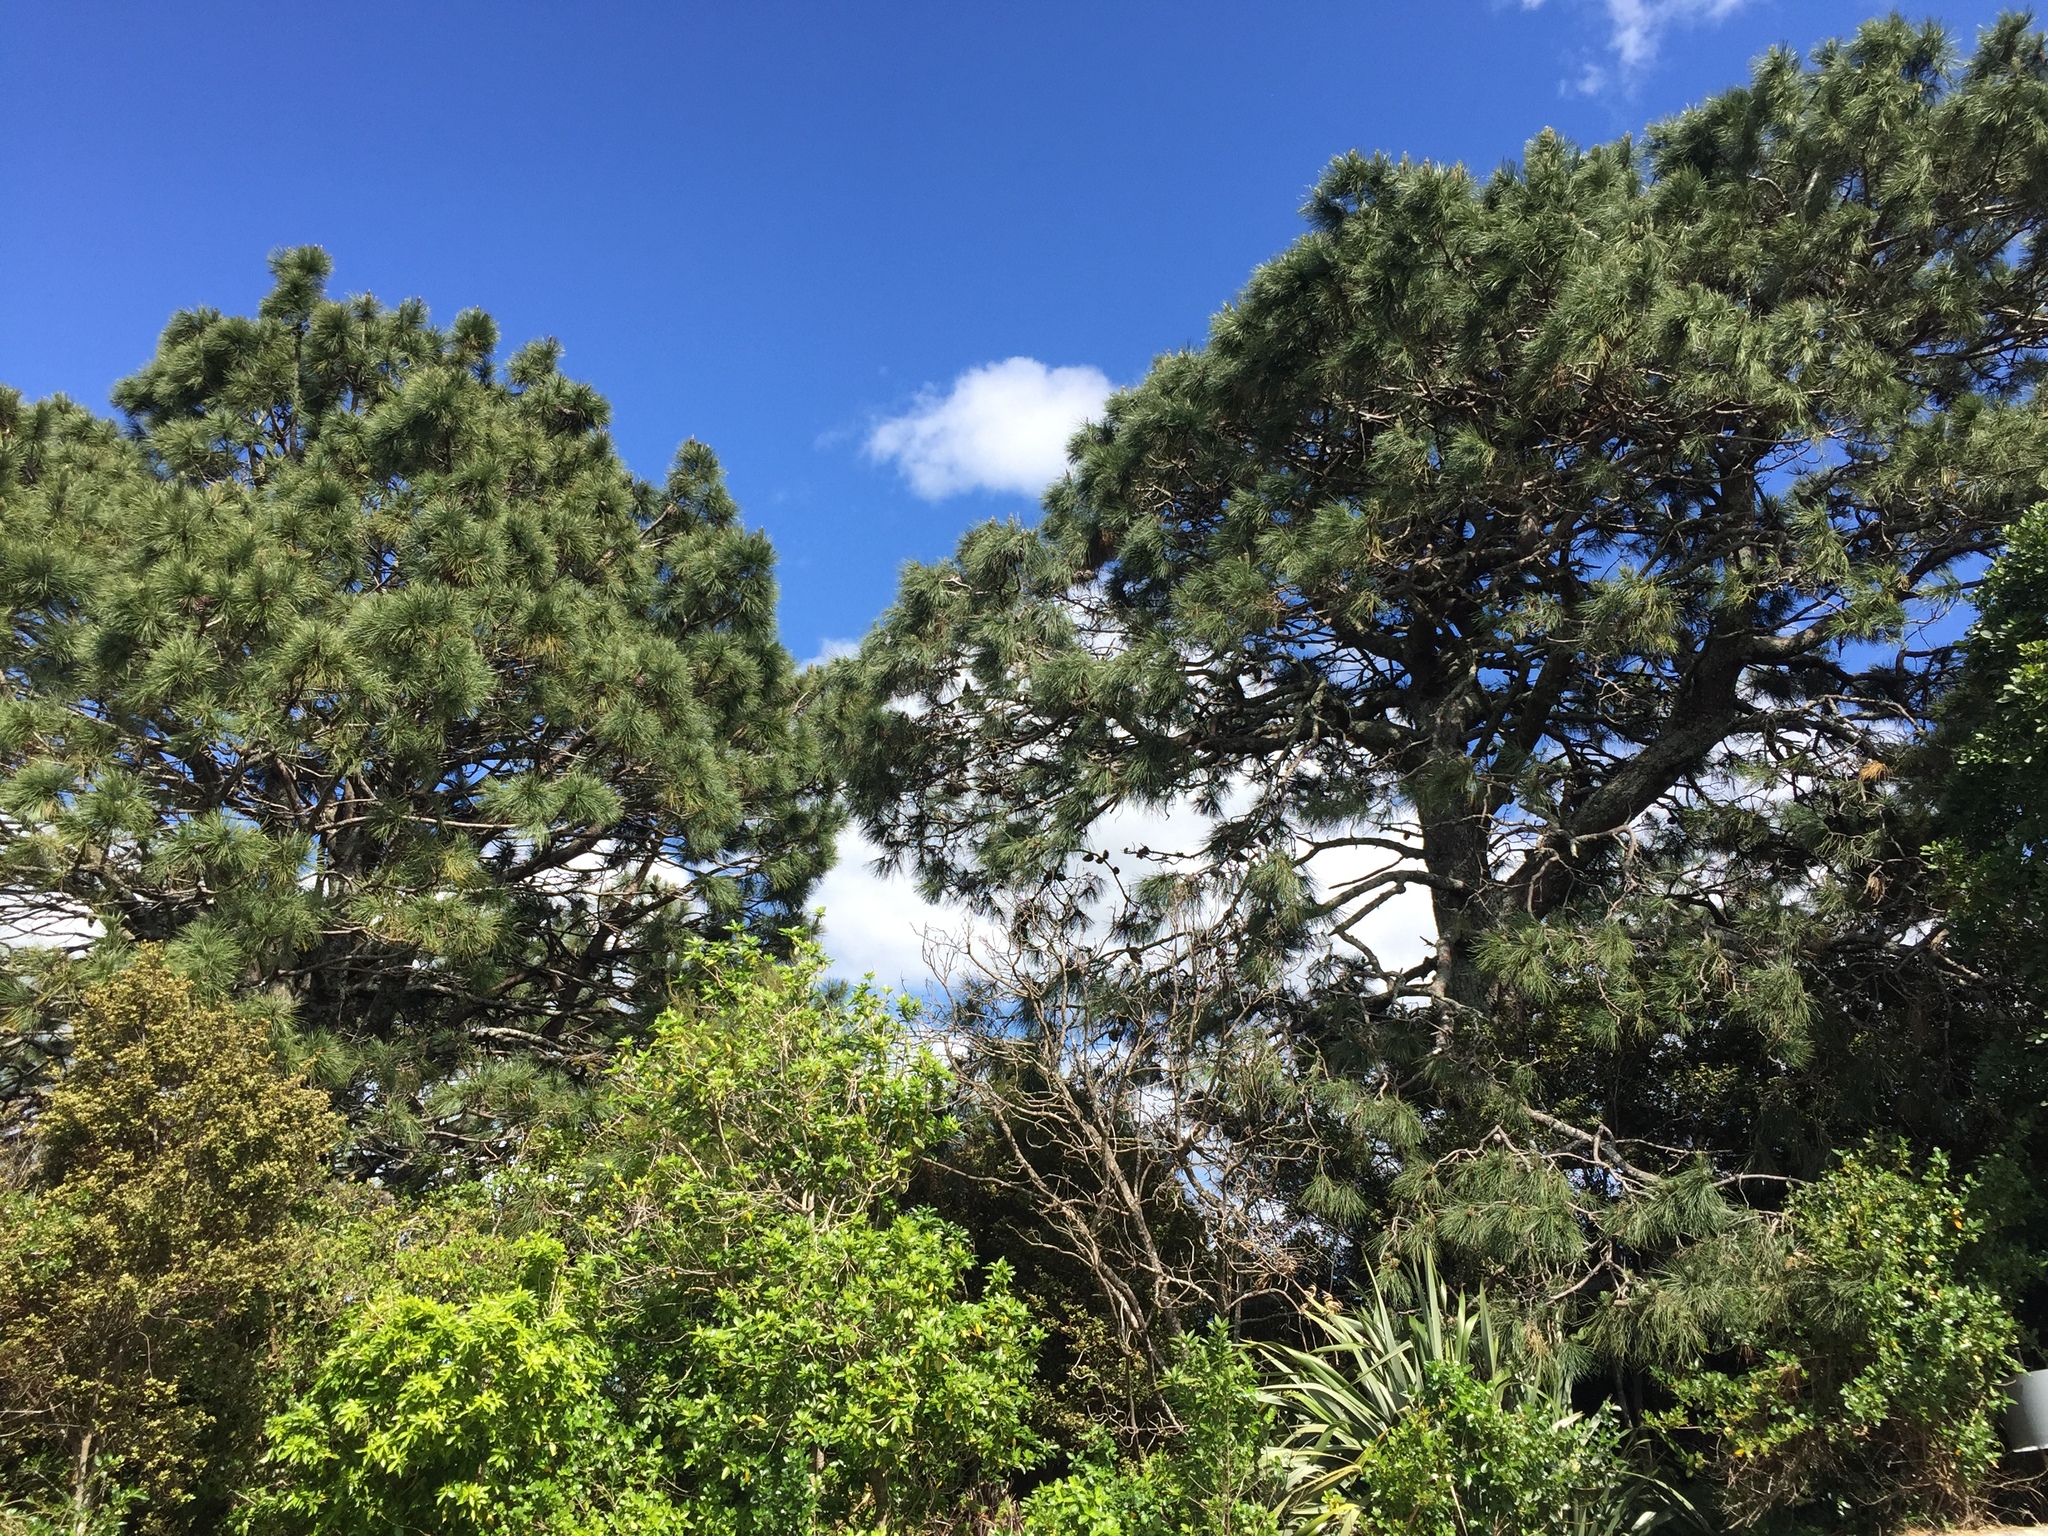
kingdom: Plantae
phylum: Tracheophyta
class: Pinopsida
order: Pinales
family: Pinaceae
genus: Pinus
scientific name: Pinus pinaster
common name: Maritime pine
